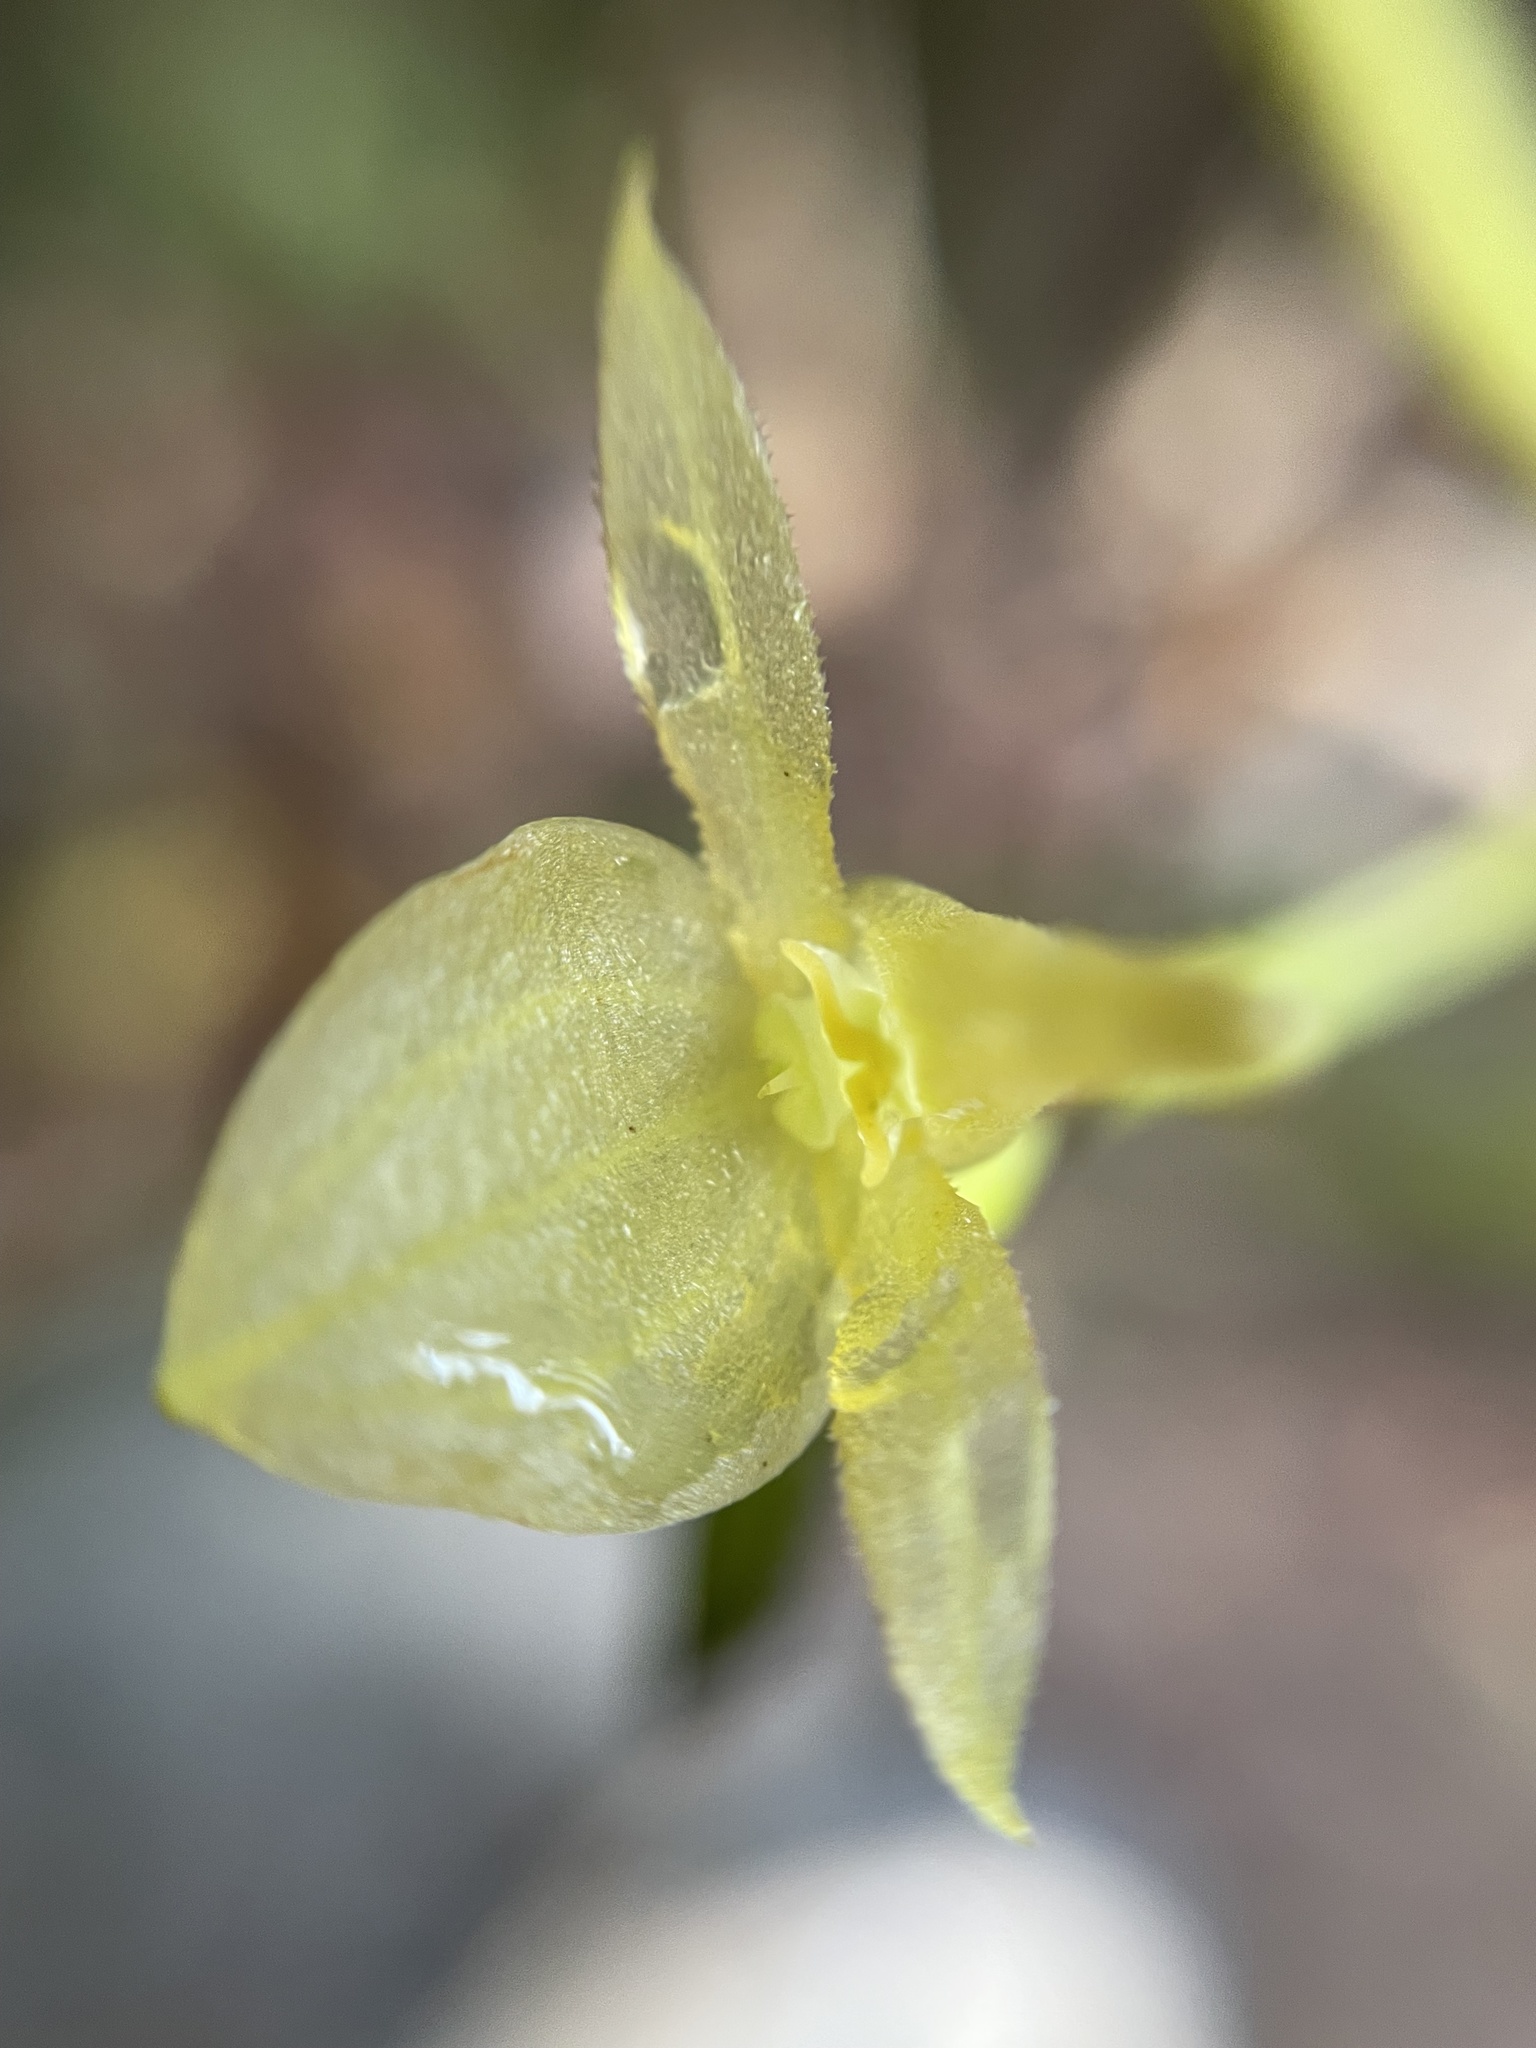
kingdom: Plantae
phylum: Tracheophyta
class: Liliopsida
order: Asparagales
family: Orchidaceae
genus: Pleurothallis
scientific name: Pleurothallis apopsis
